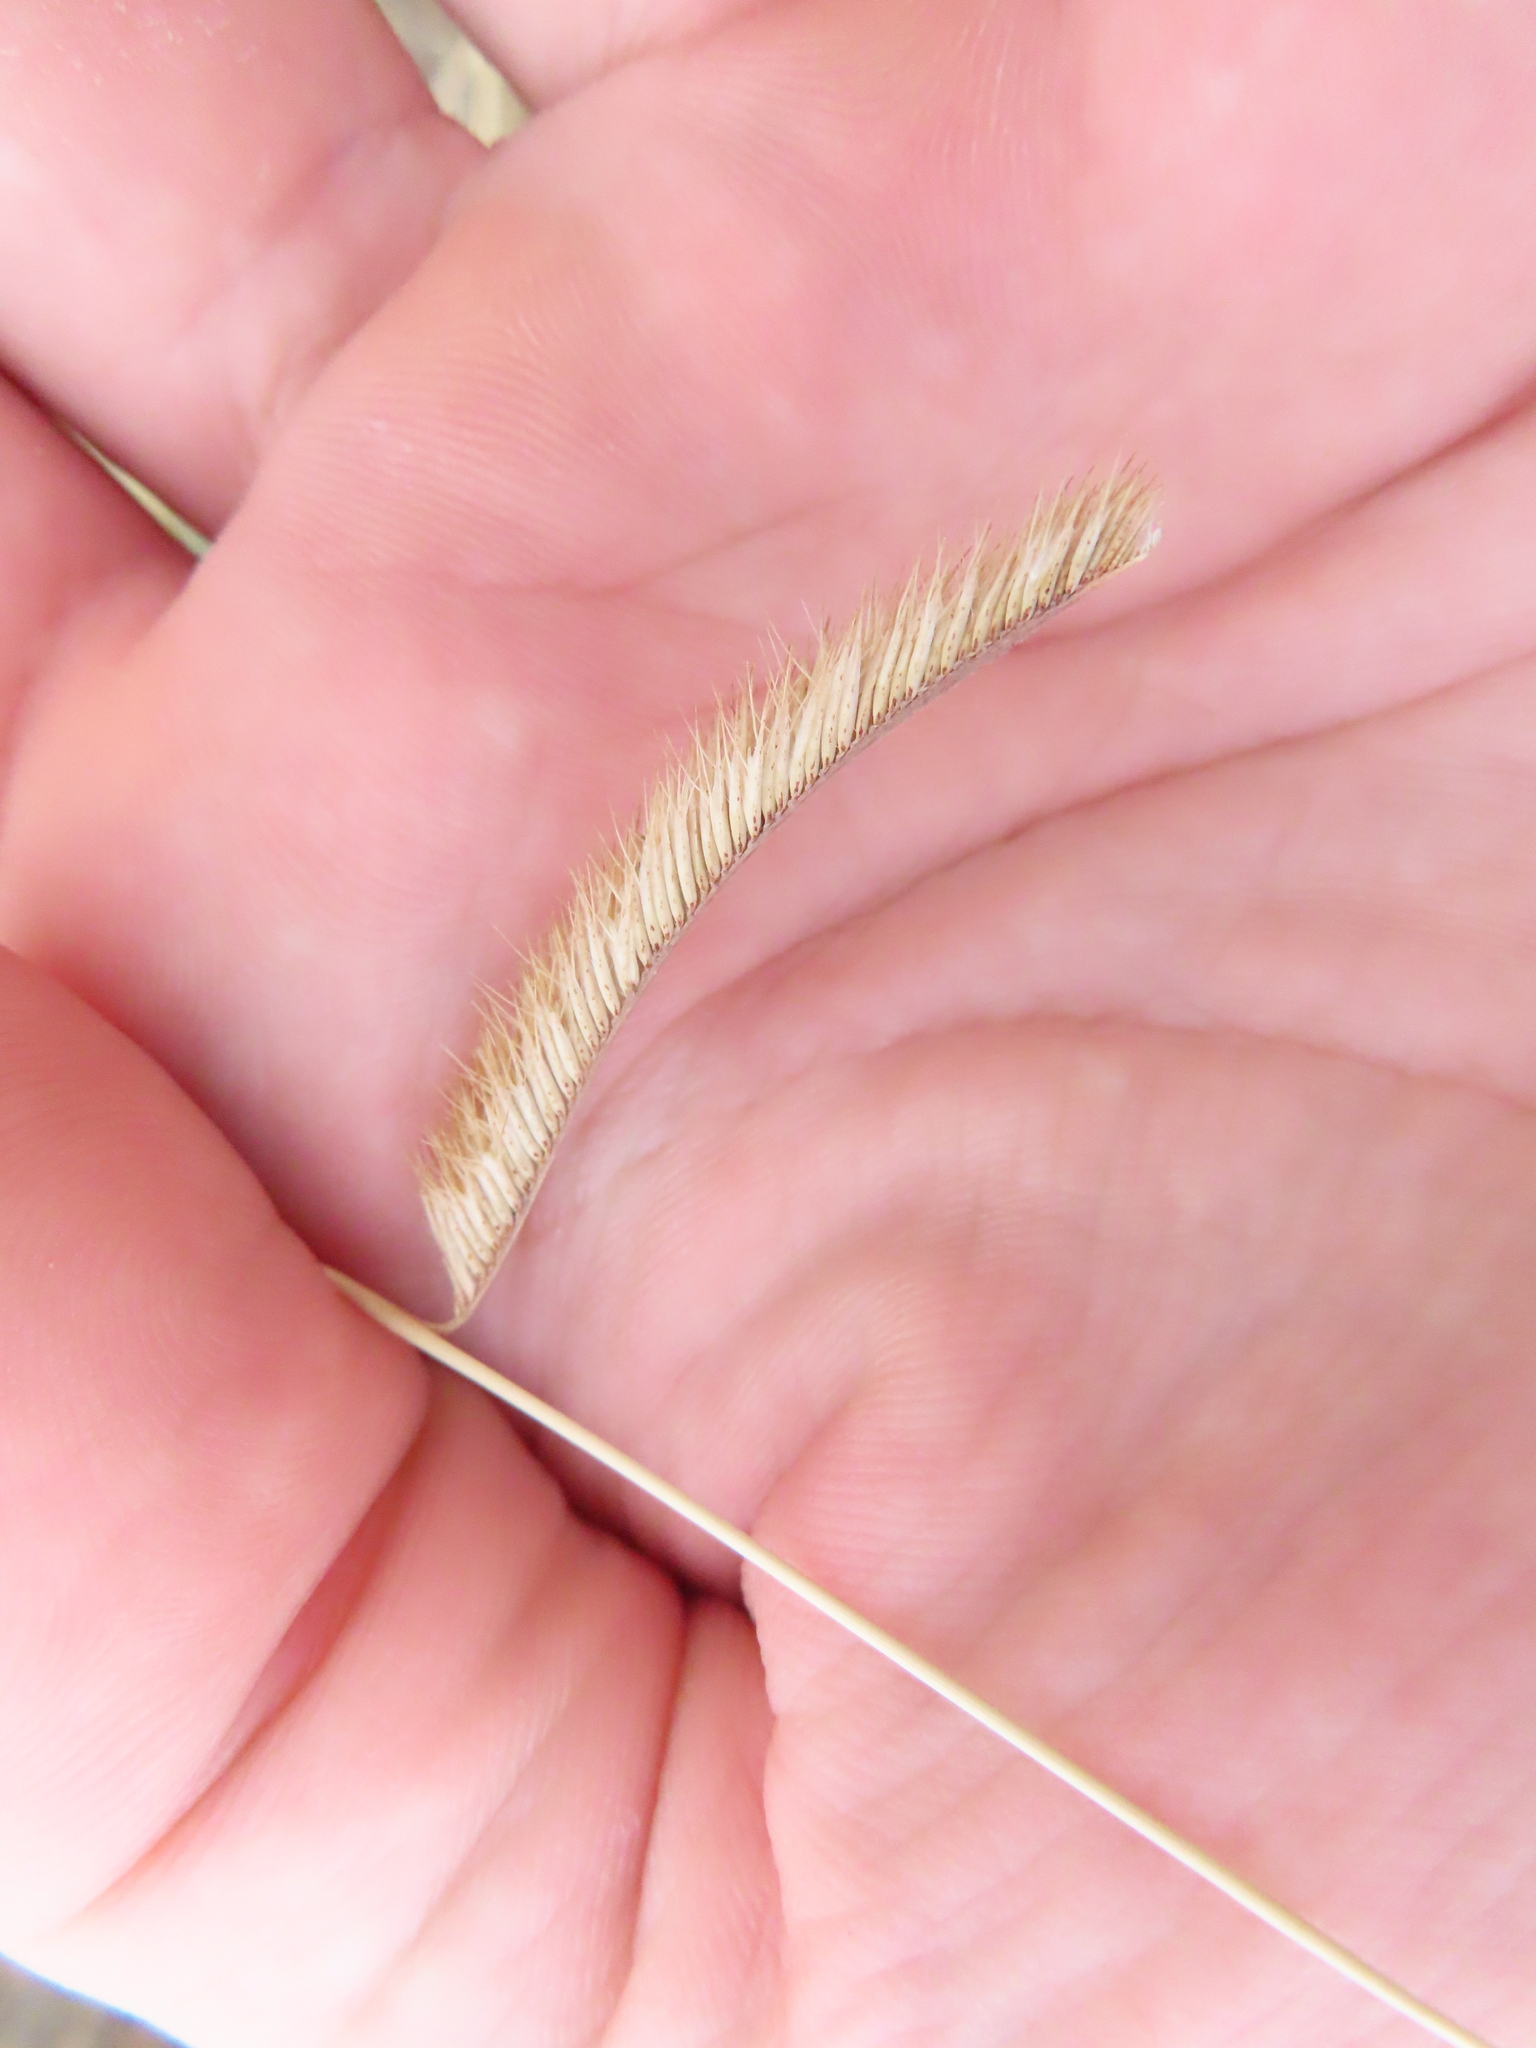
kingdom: Plantae
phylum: Tracheophyta
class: Liliopsida
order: Poales
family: Poaceae
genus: Bouteloua
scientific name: Bouteloua gracilis
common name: Blue grama
